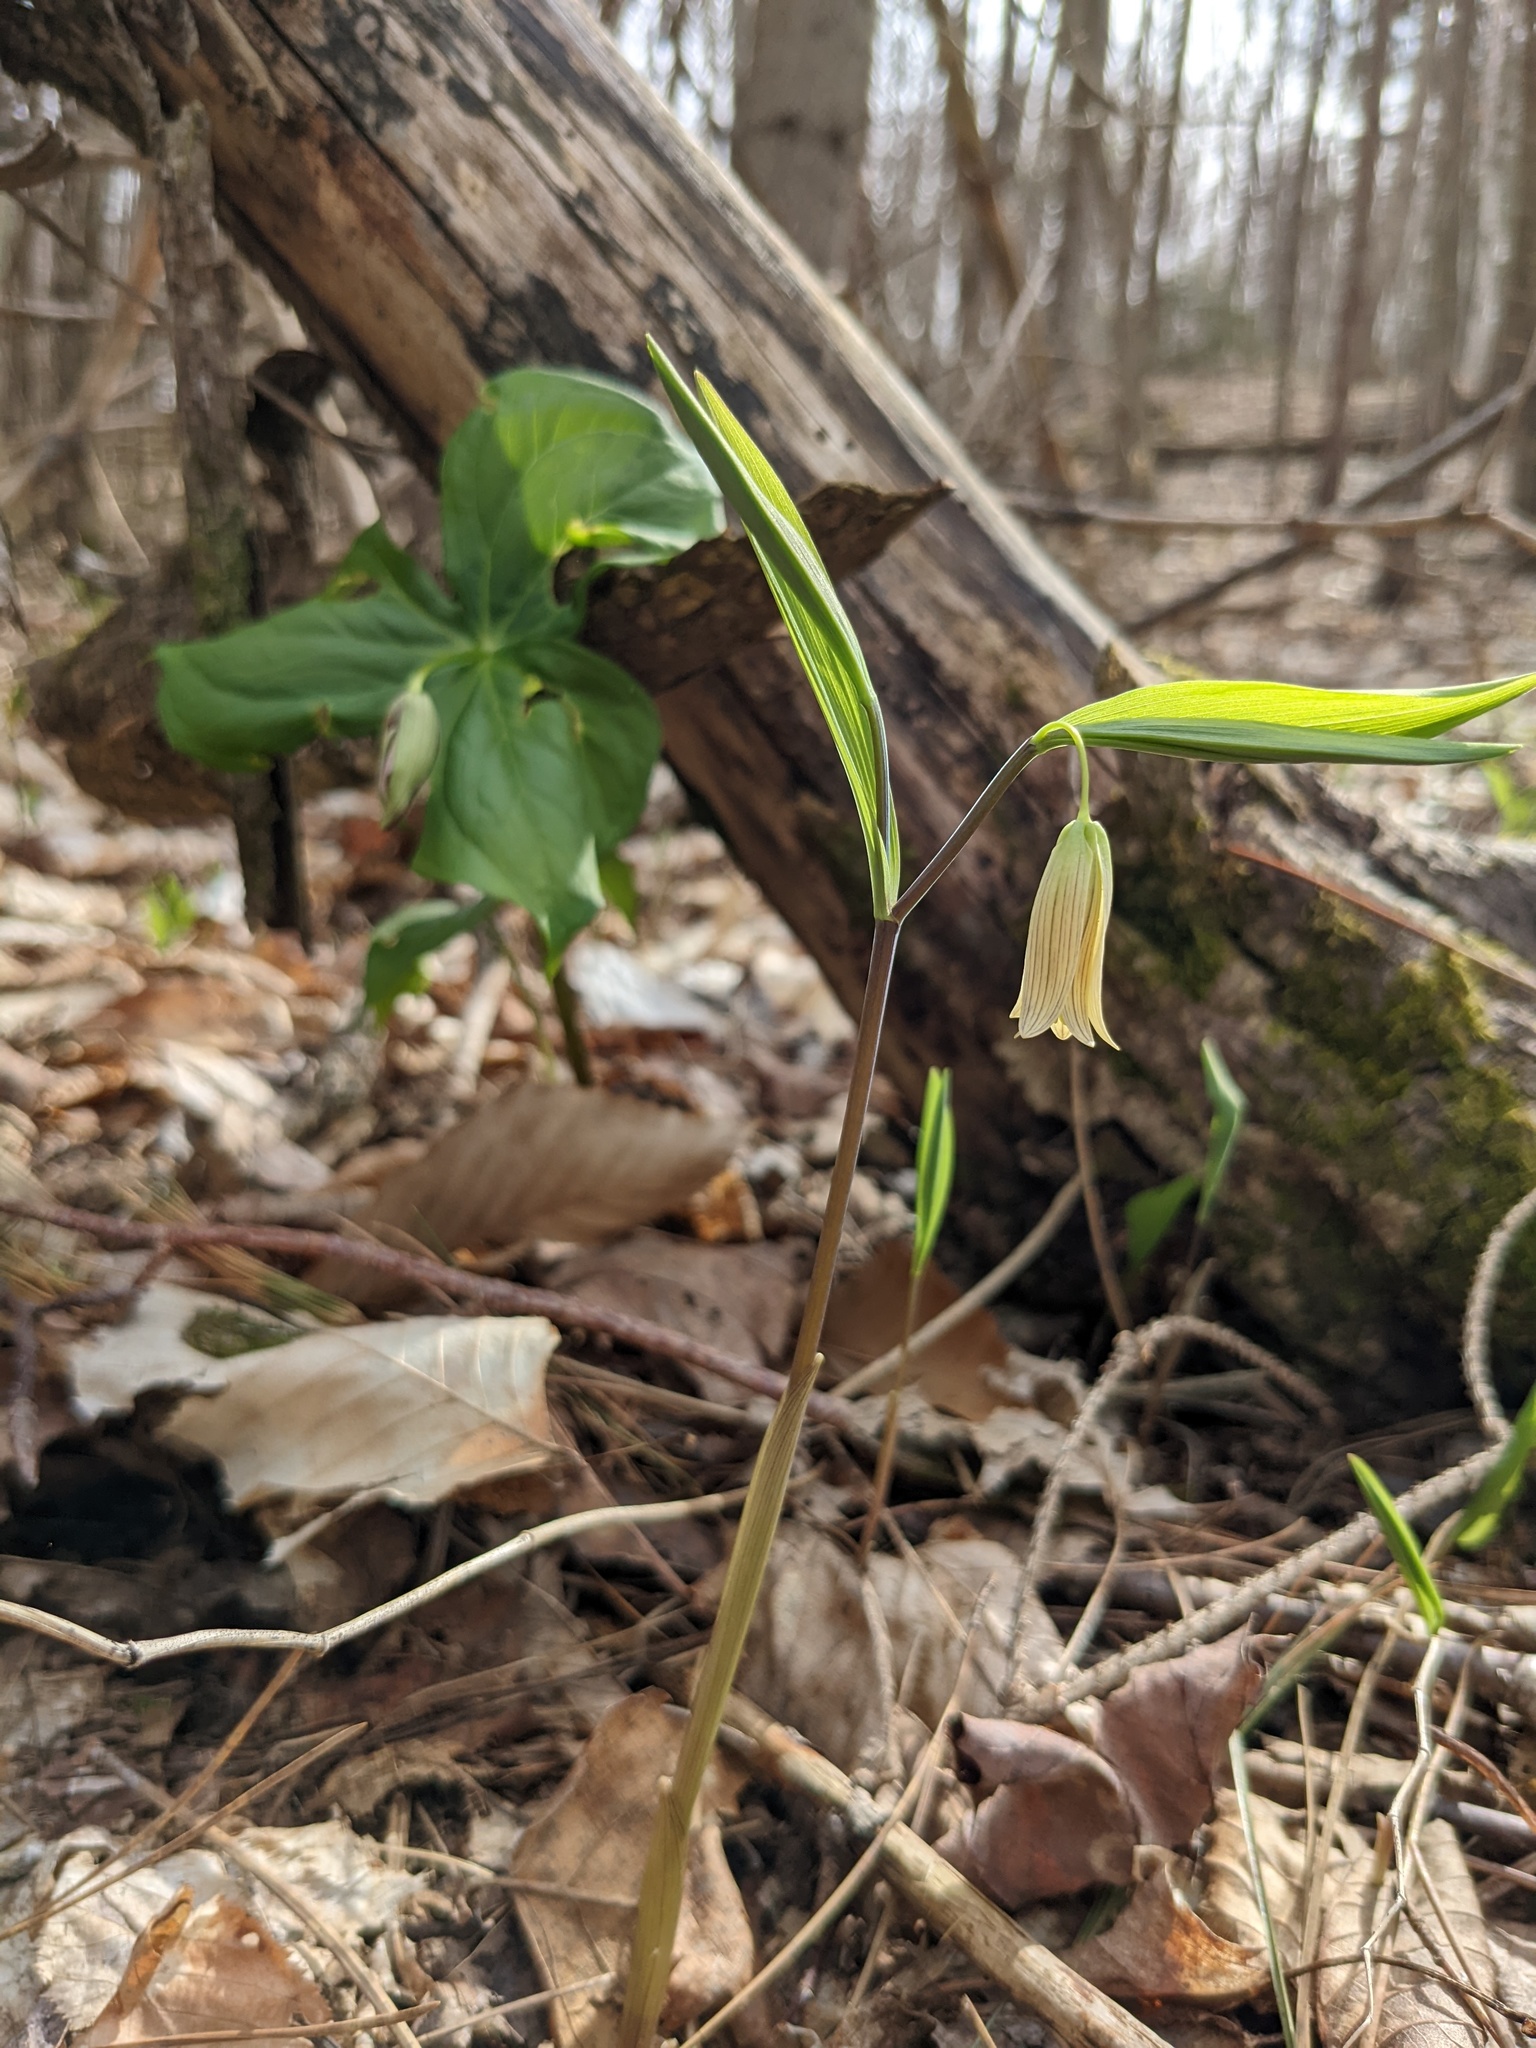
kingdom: Plantae
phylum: Tracheophyta
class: Liliopsida
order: Liliales
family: Colchicaceae
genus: Uvularia
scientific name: Uvularia sessilifolia
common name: Straw-lily
